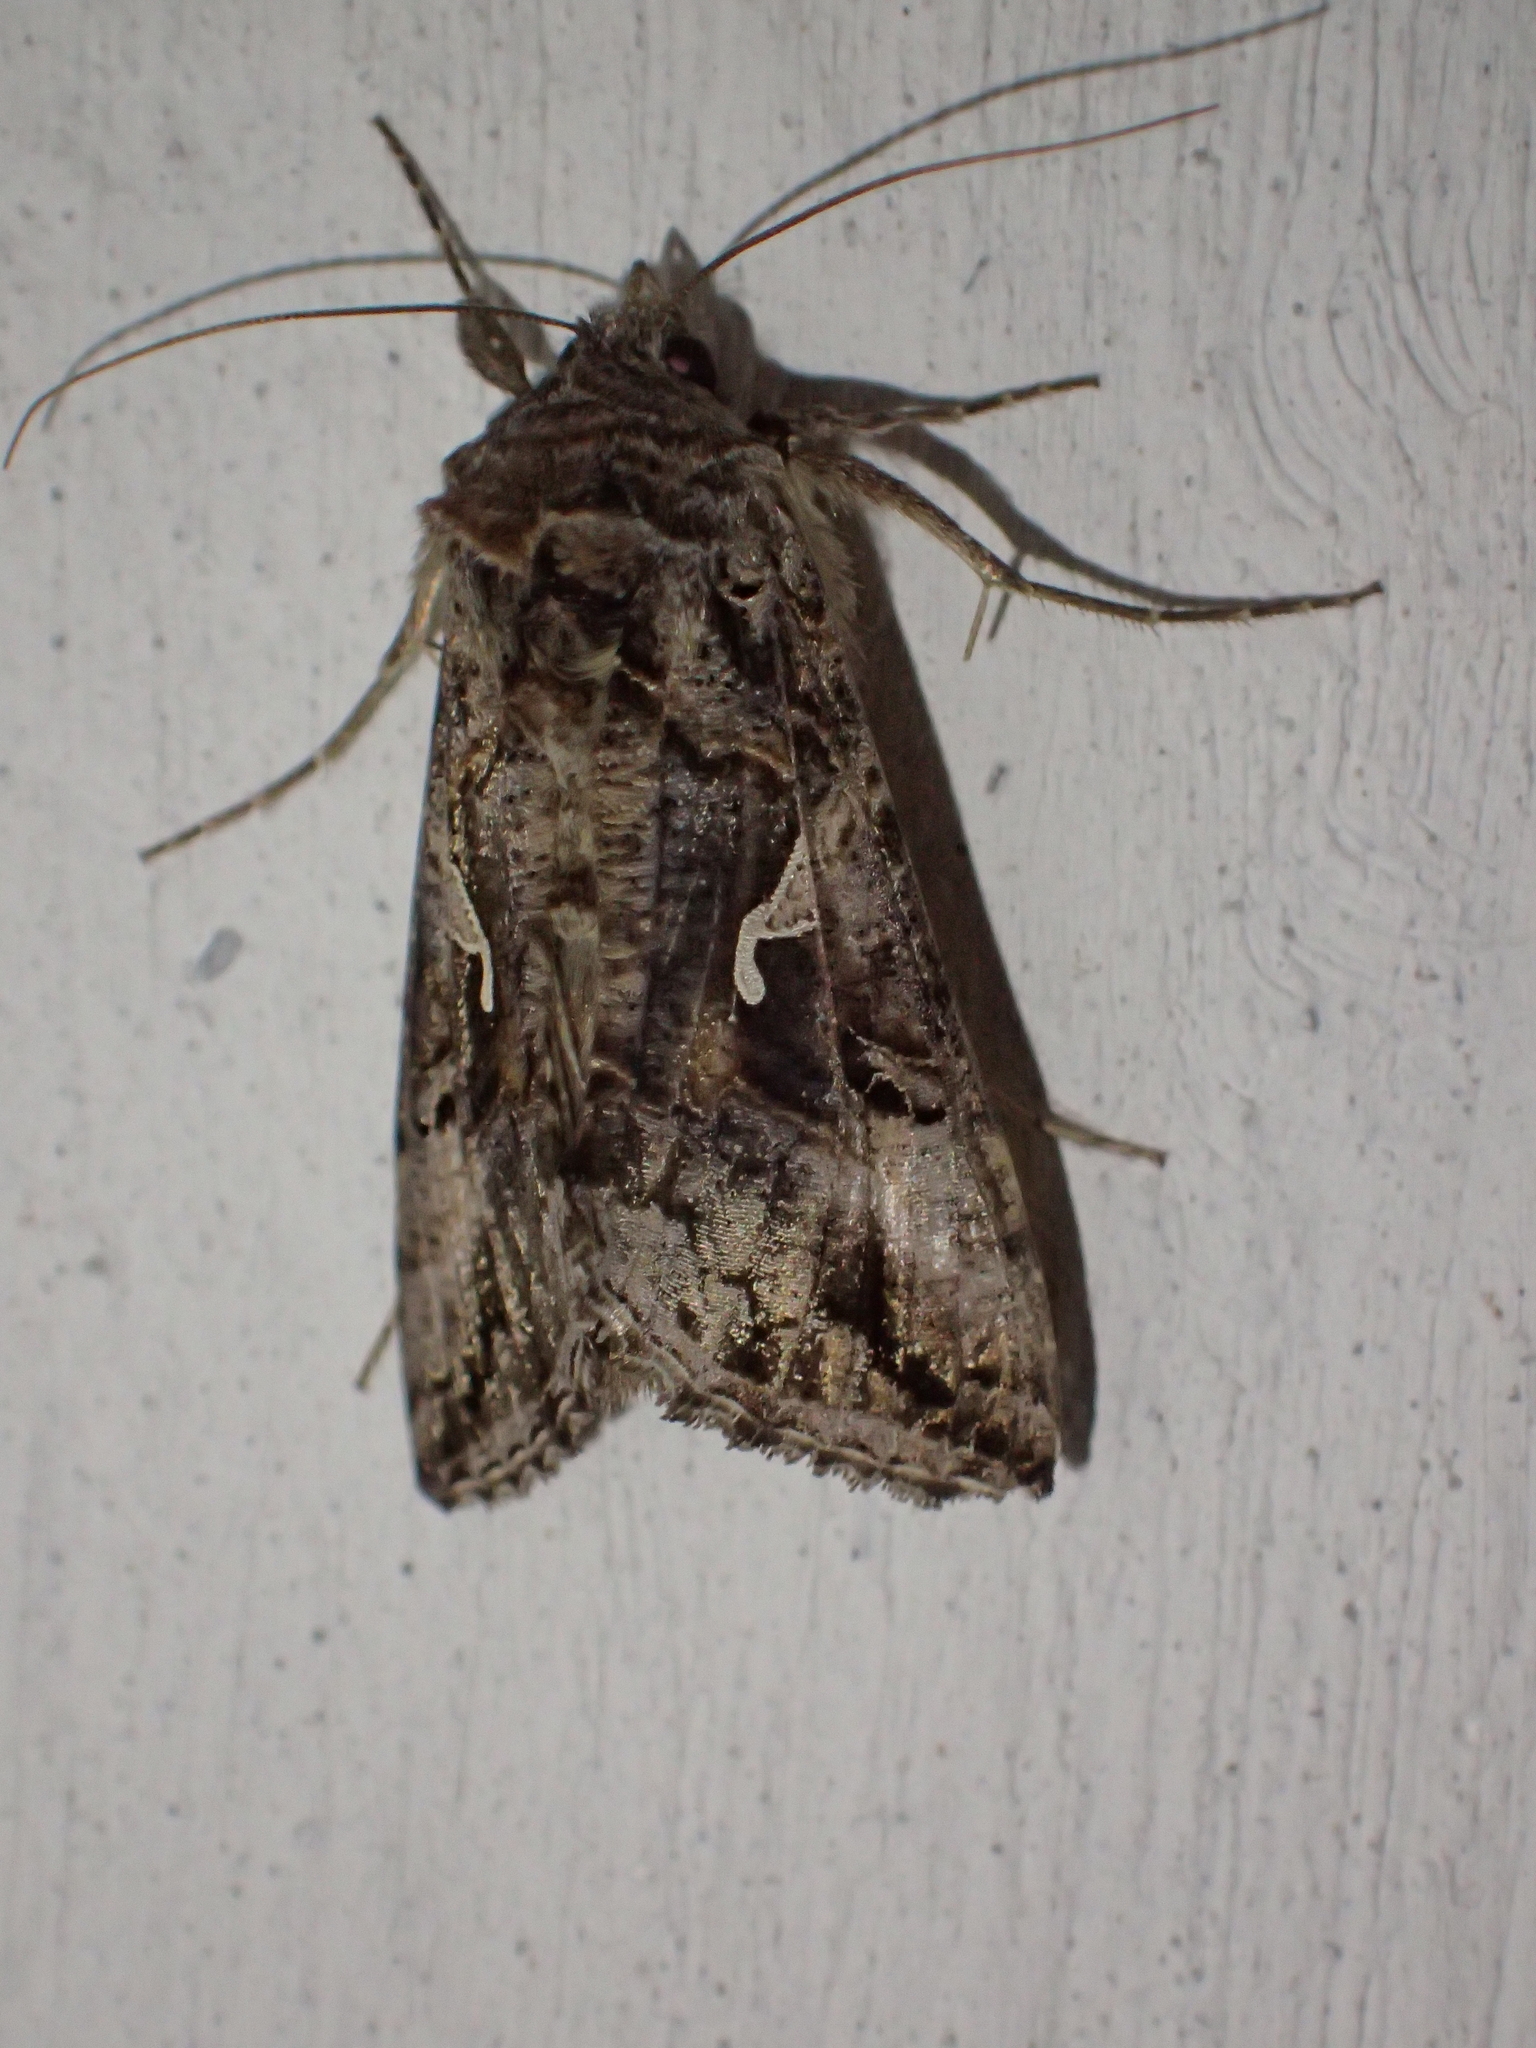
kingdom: Animalia
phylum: Arthropoda
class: Insecta
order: Lepidoptera
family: Noctuidae
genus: Autographa
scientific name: Autographa gamma
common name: Silver y
